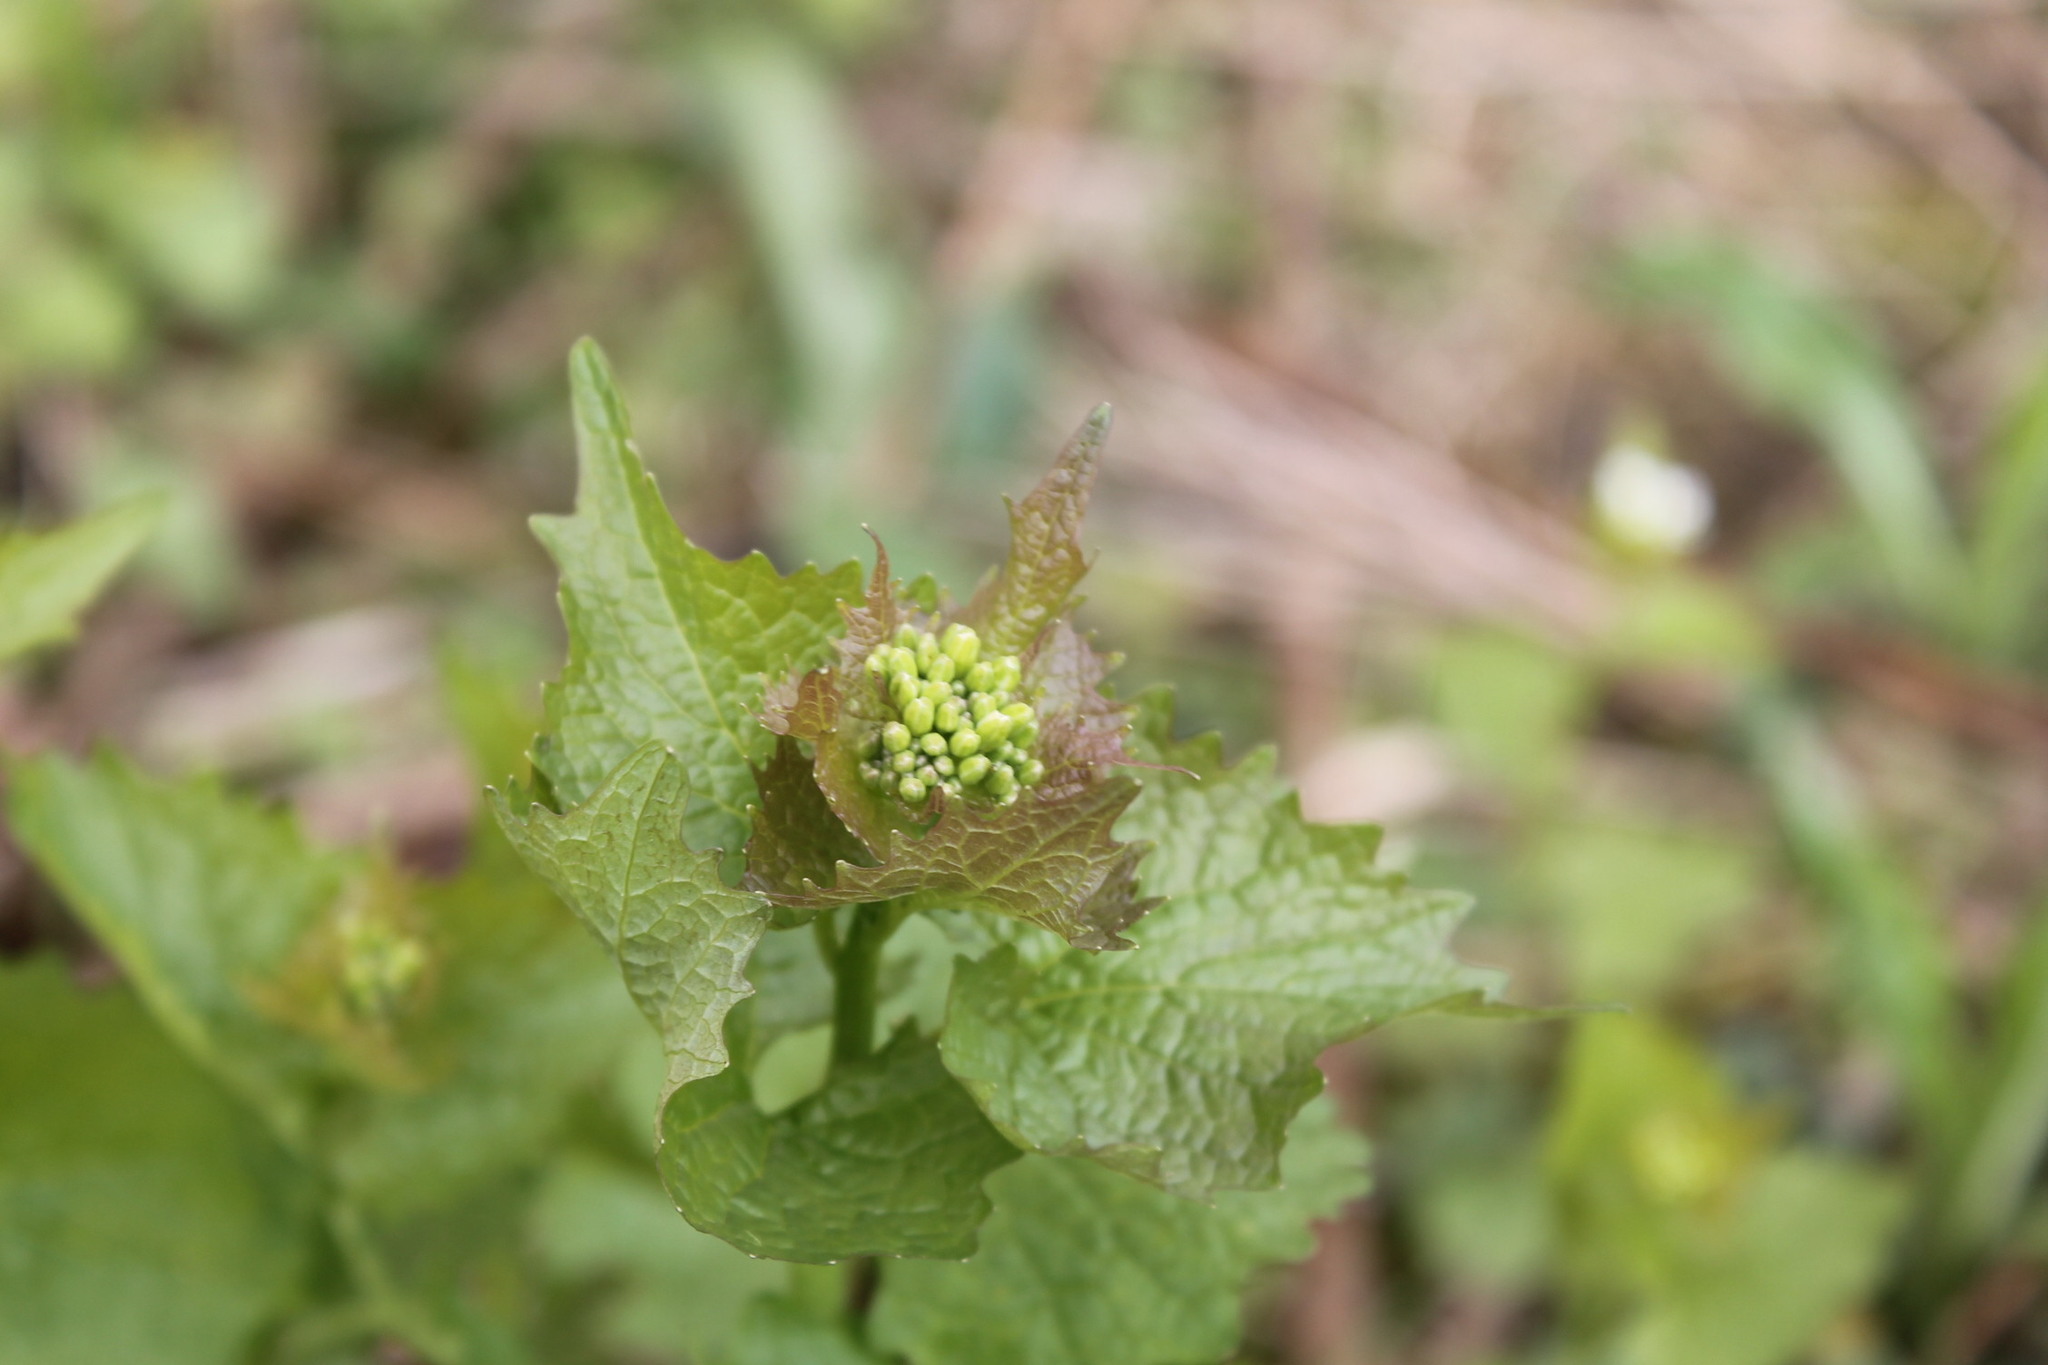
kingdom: Plantae
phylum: Tracheophyta
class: Magnoliopsida
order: Brassicales
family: Brassicaceae
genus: Alliaria
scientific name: Alliaria petiolata
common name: Garlic mustard
